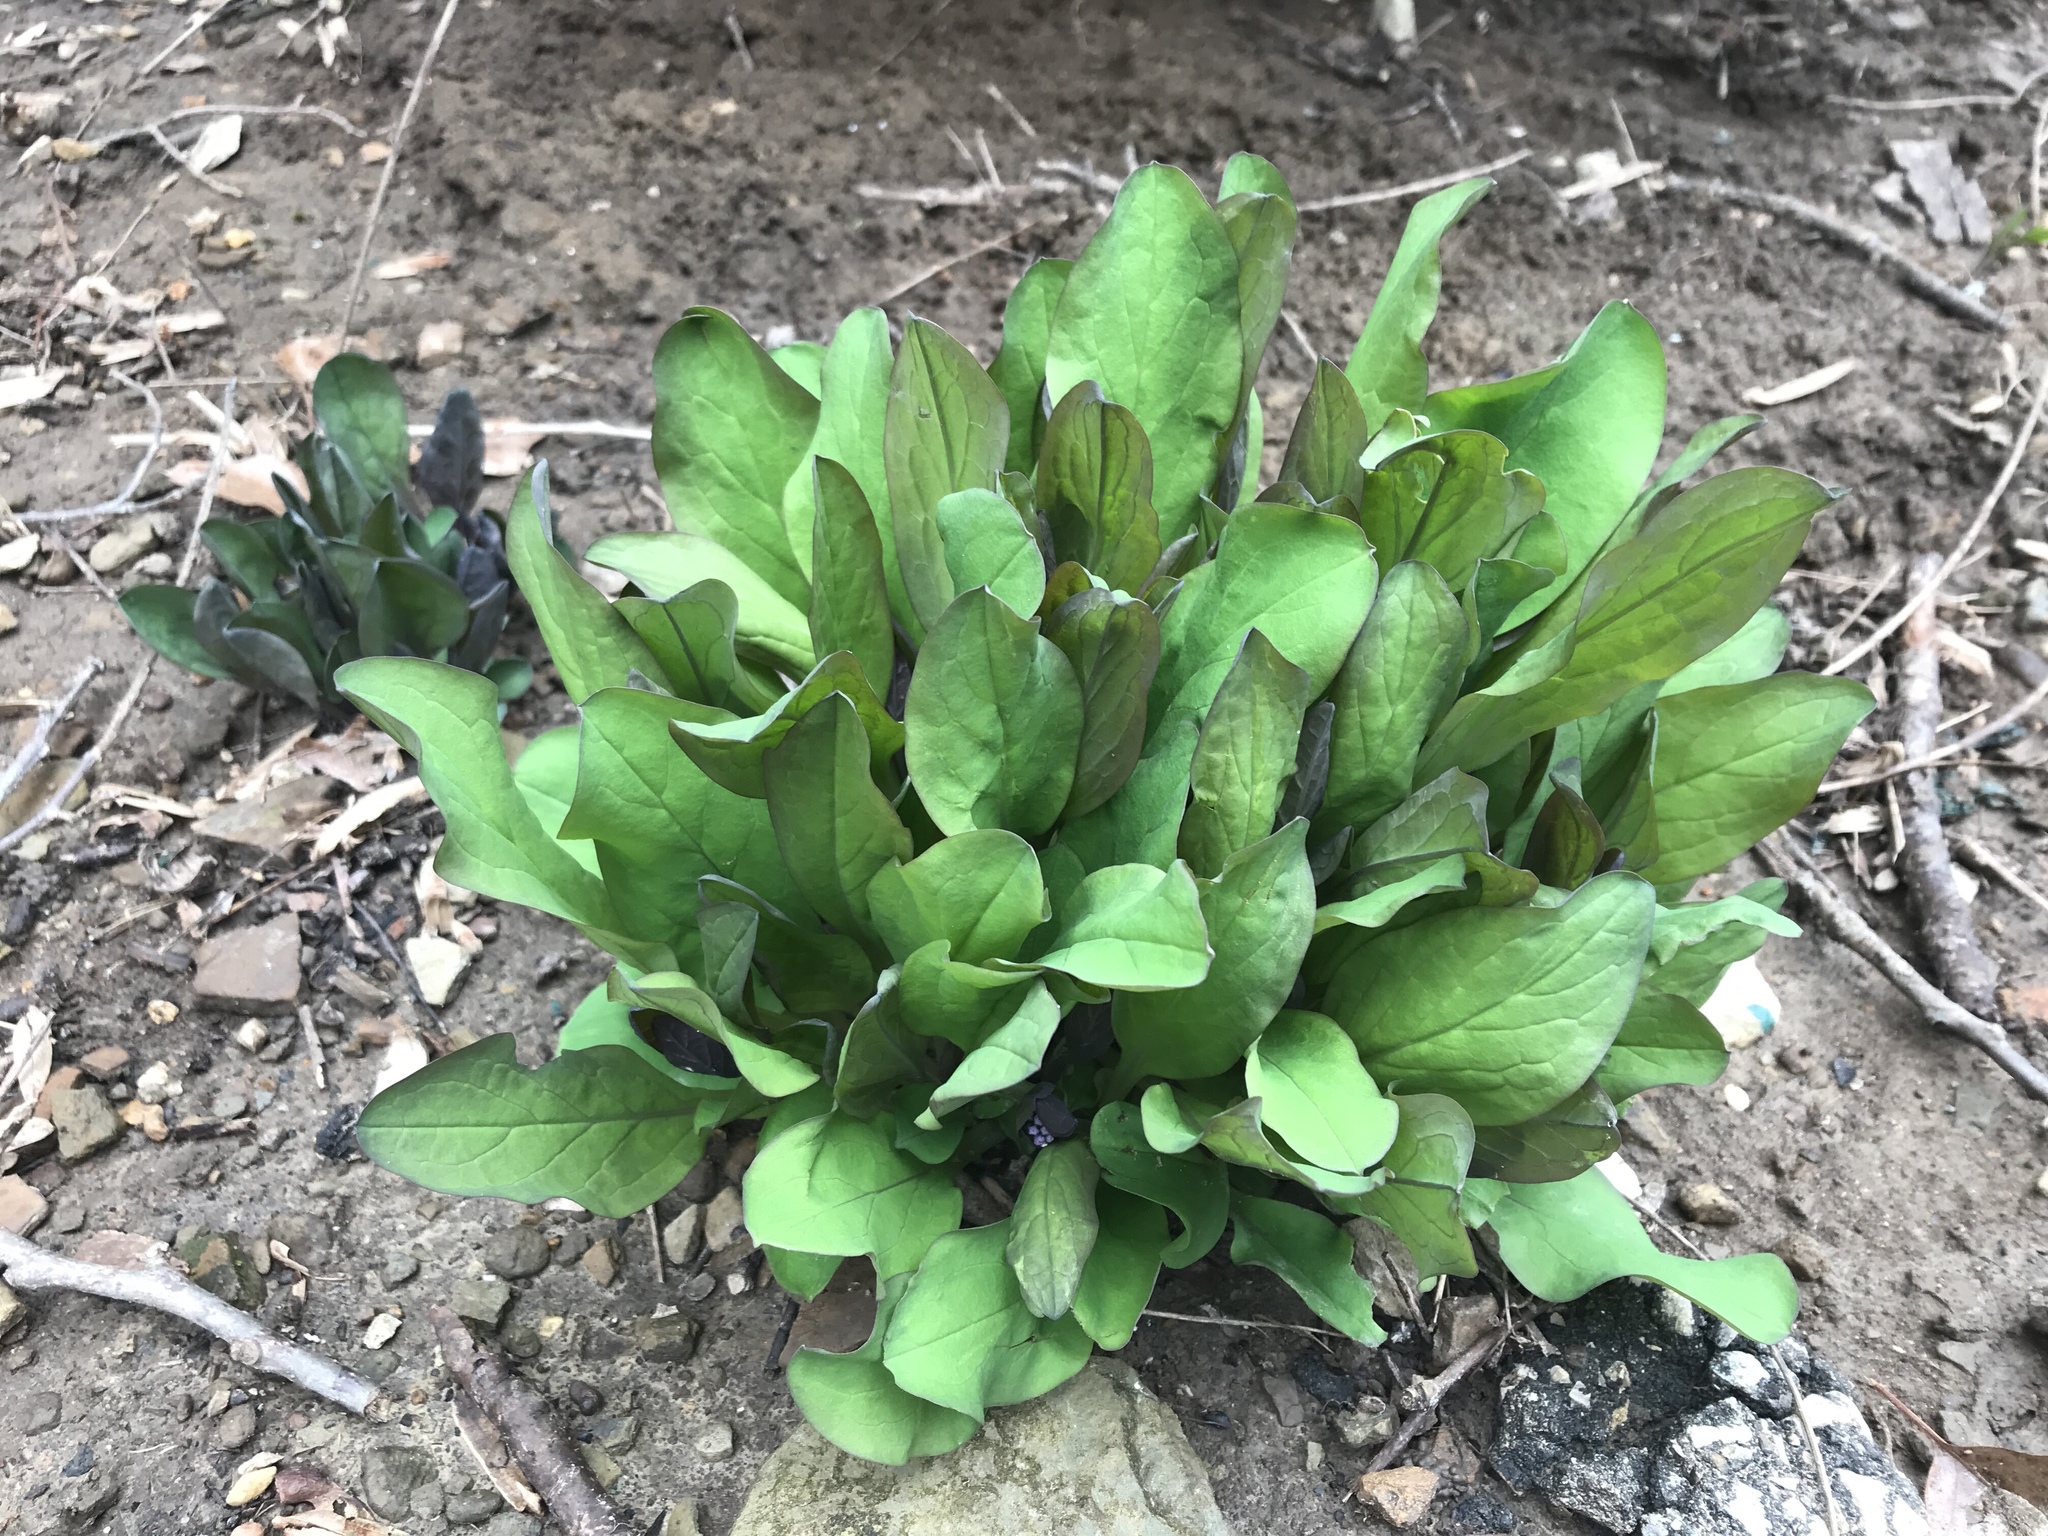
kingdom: Plantae
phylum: Tracheophyta
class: Magnoliopsida
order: Boraginales
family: Boraginaceae
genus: Mertensia
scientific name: Mertensia virginica
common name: Virginia bluebells
